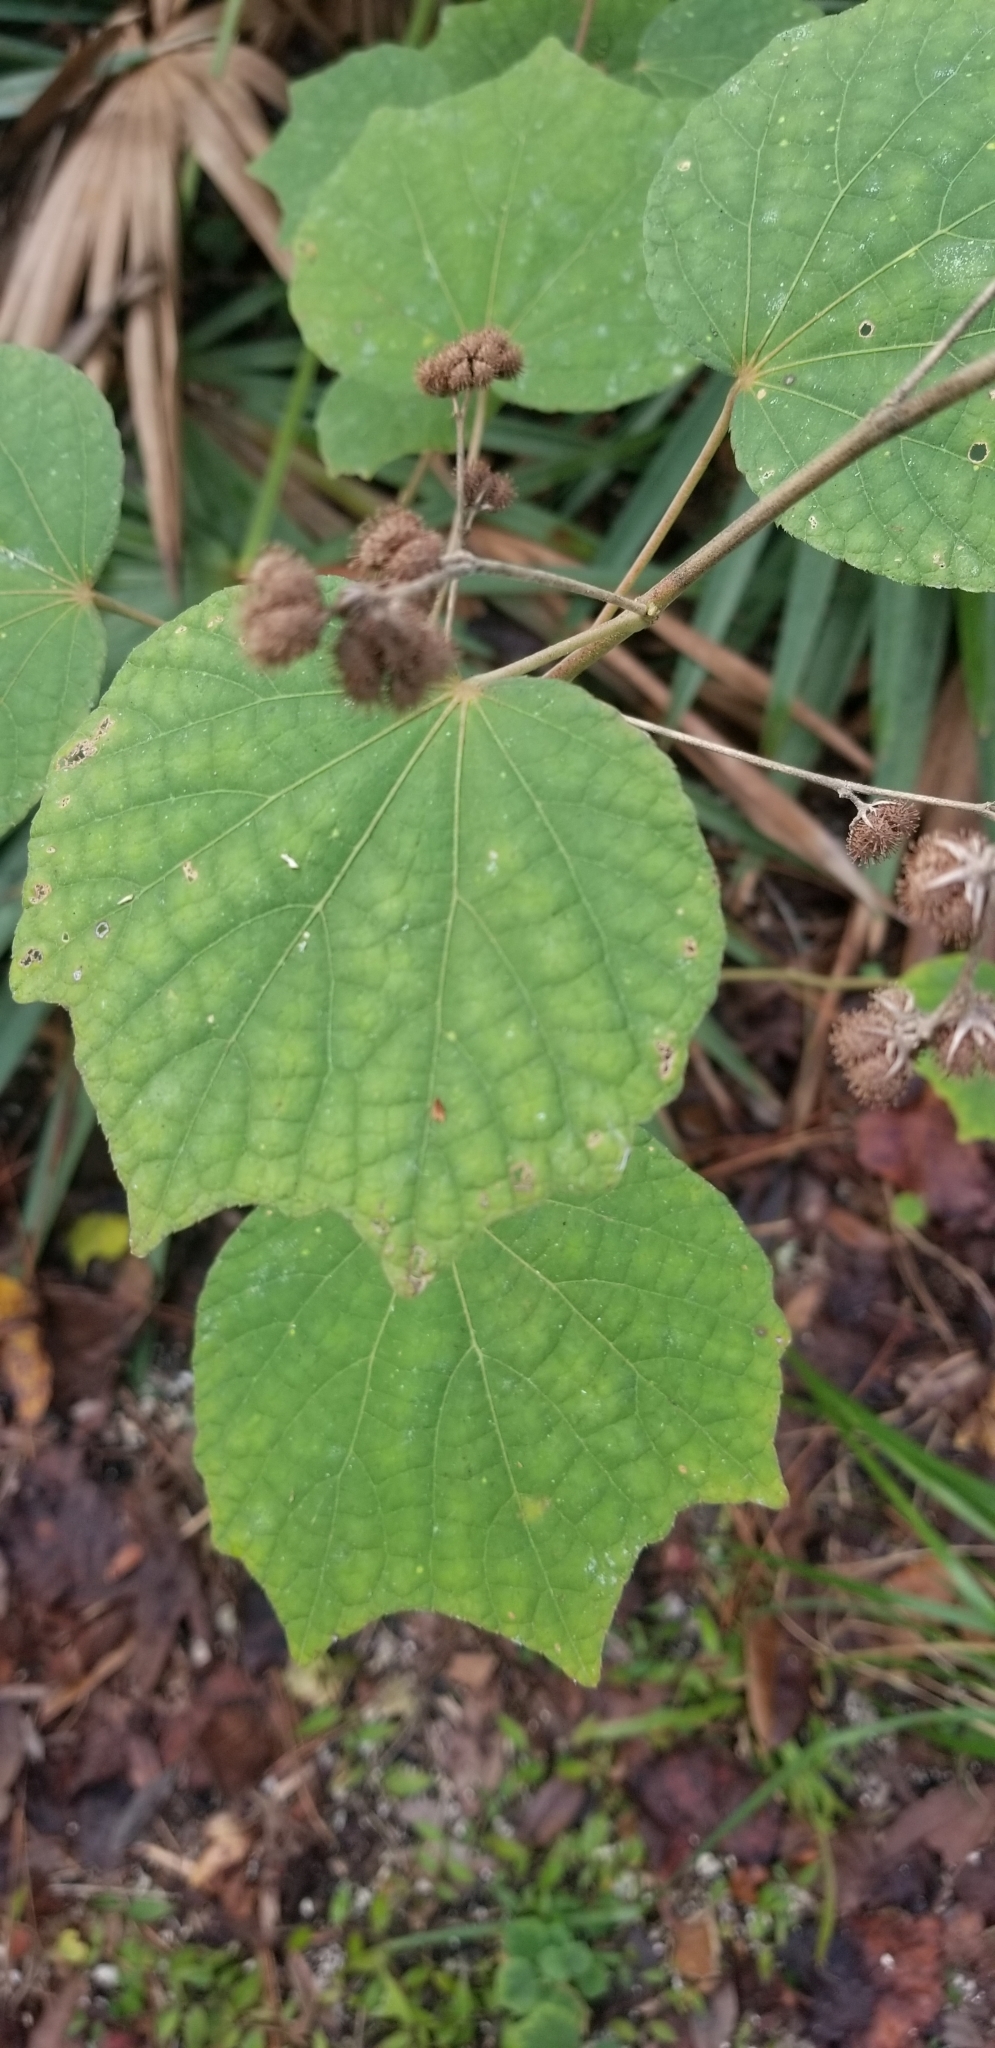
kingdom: Plantae
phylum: Tracheophyta
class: Magnoliopsida
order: Malvales
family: Malvaceae
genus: Urena
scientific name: Urena lobata
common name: Caesarweed
